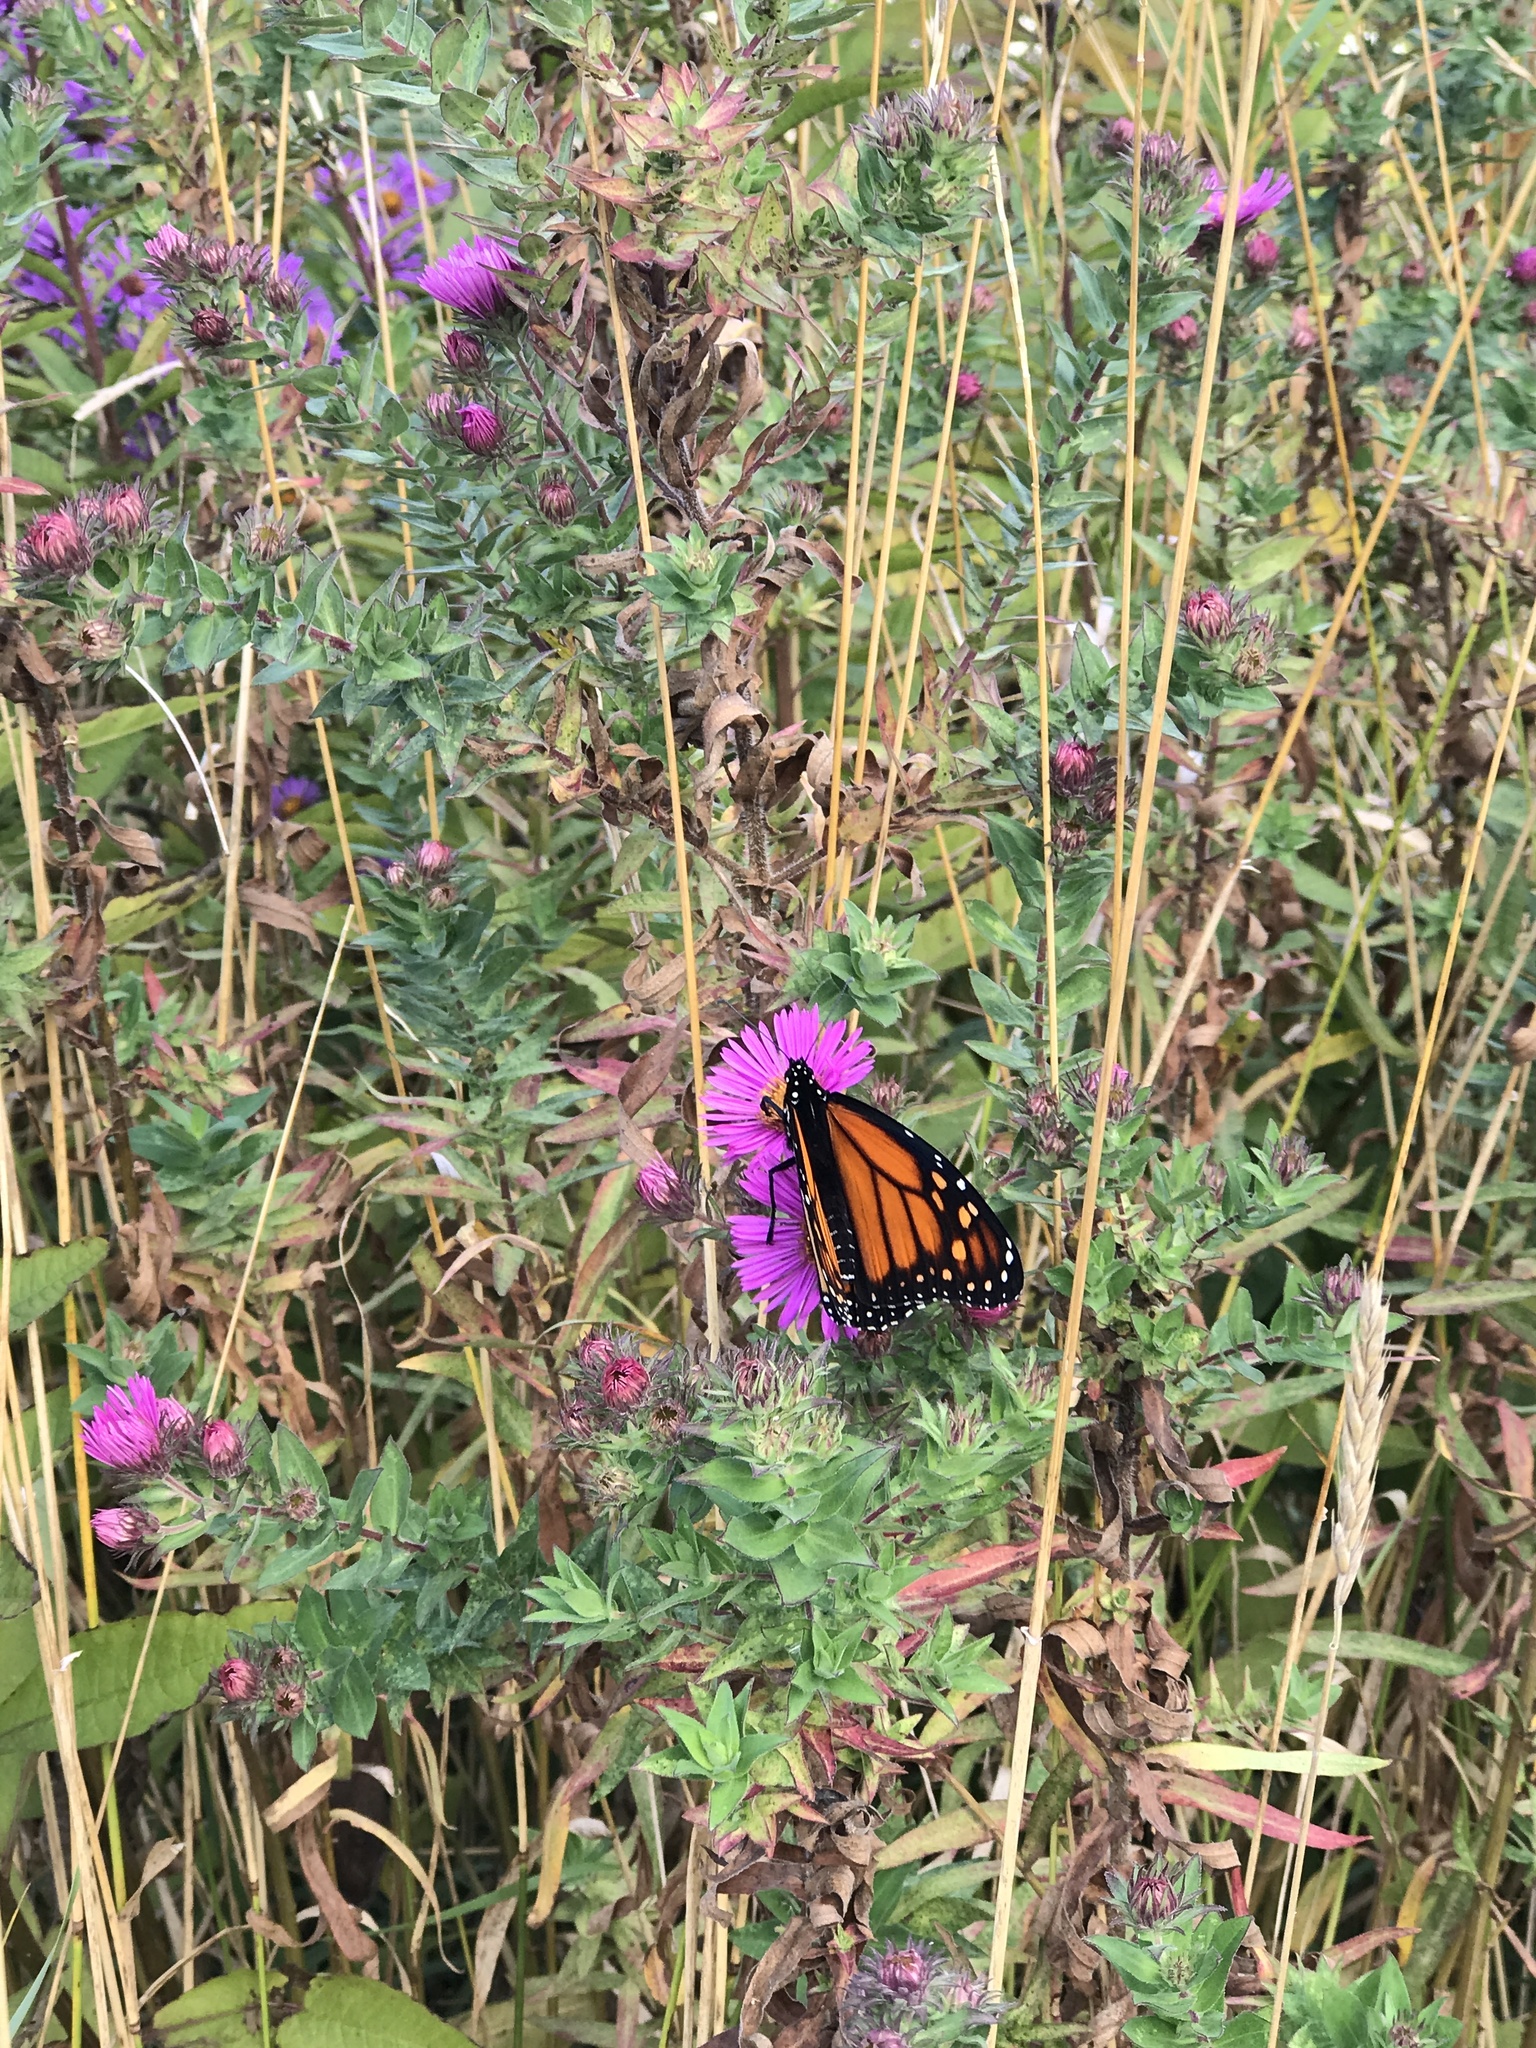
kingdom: Animalia
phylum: Arthropoda
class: Insecta
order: Lepidoptera
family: Nymphalidae
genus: Danaus
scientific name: Danaus plexippus
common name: Monarch
